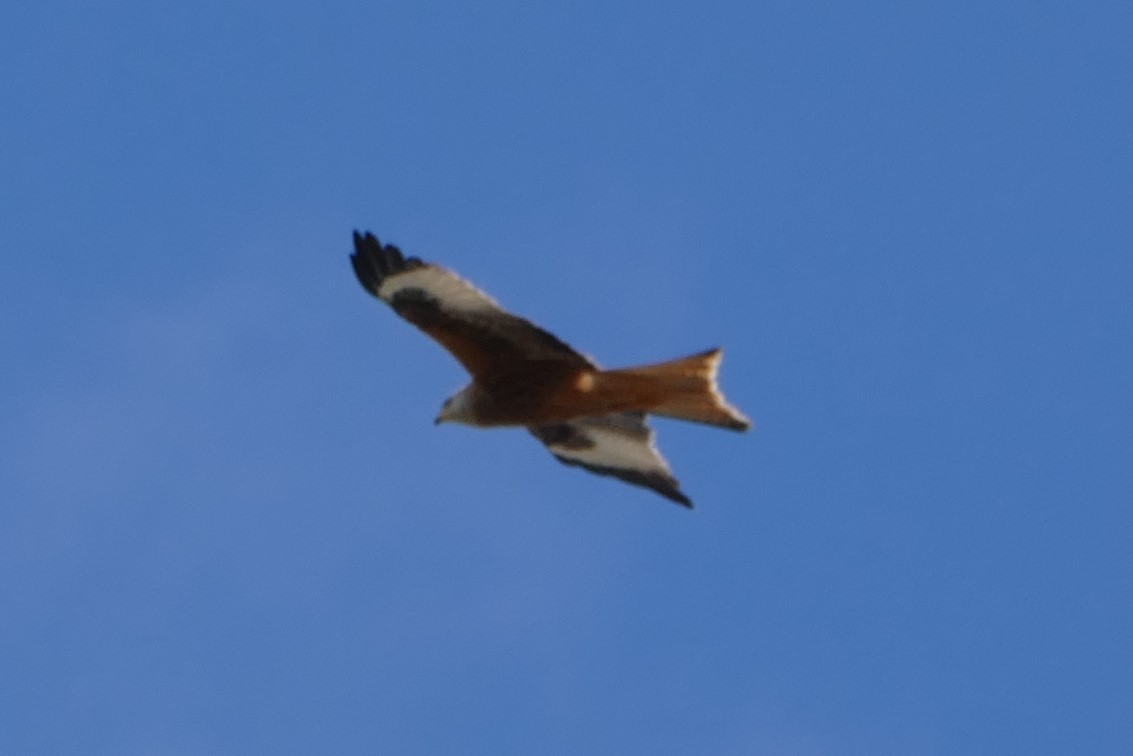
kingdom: Animalia
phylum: Chordata
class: Aves
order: Accipitriformes
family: Accipitridae
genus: Milvus
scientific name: Milvus milvus
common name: Red kite
